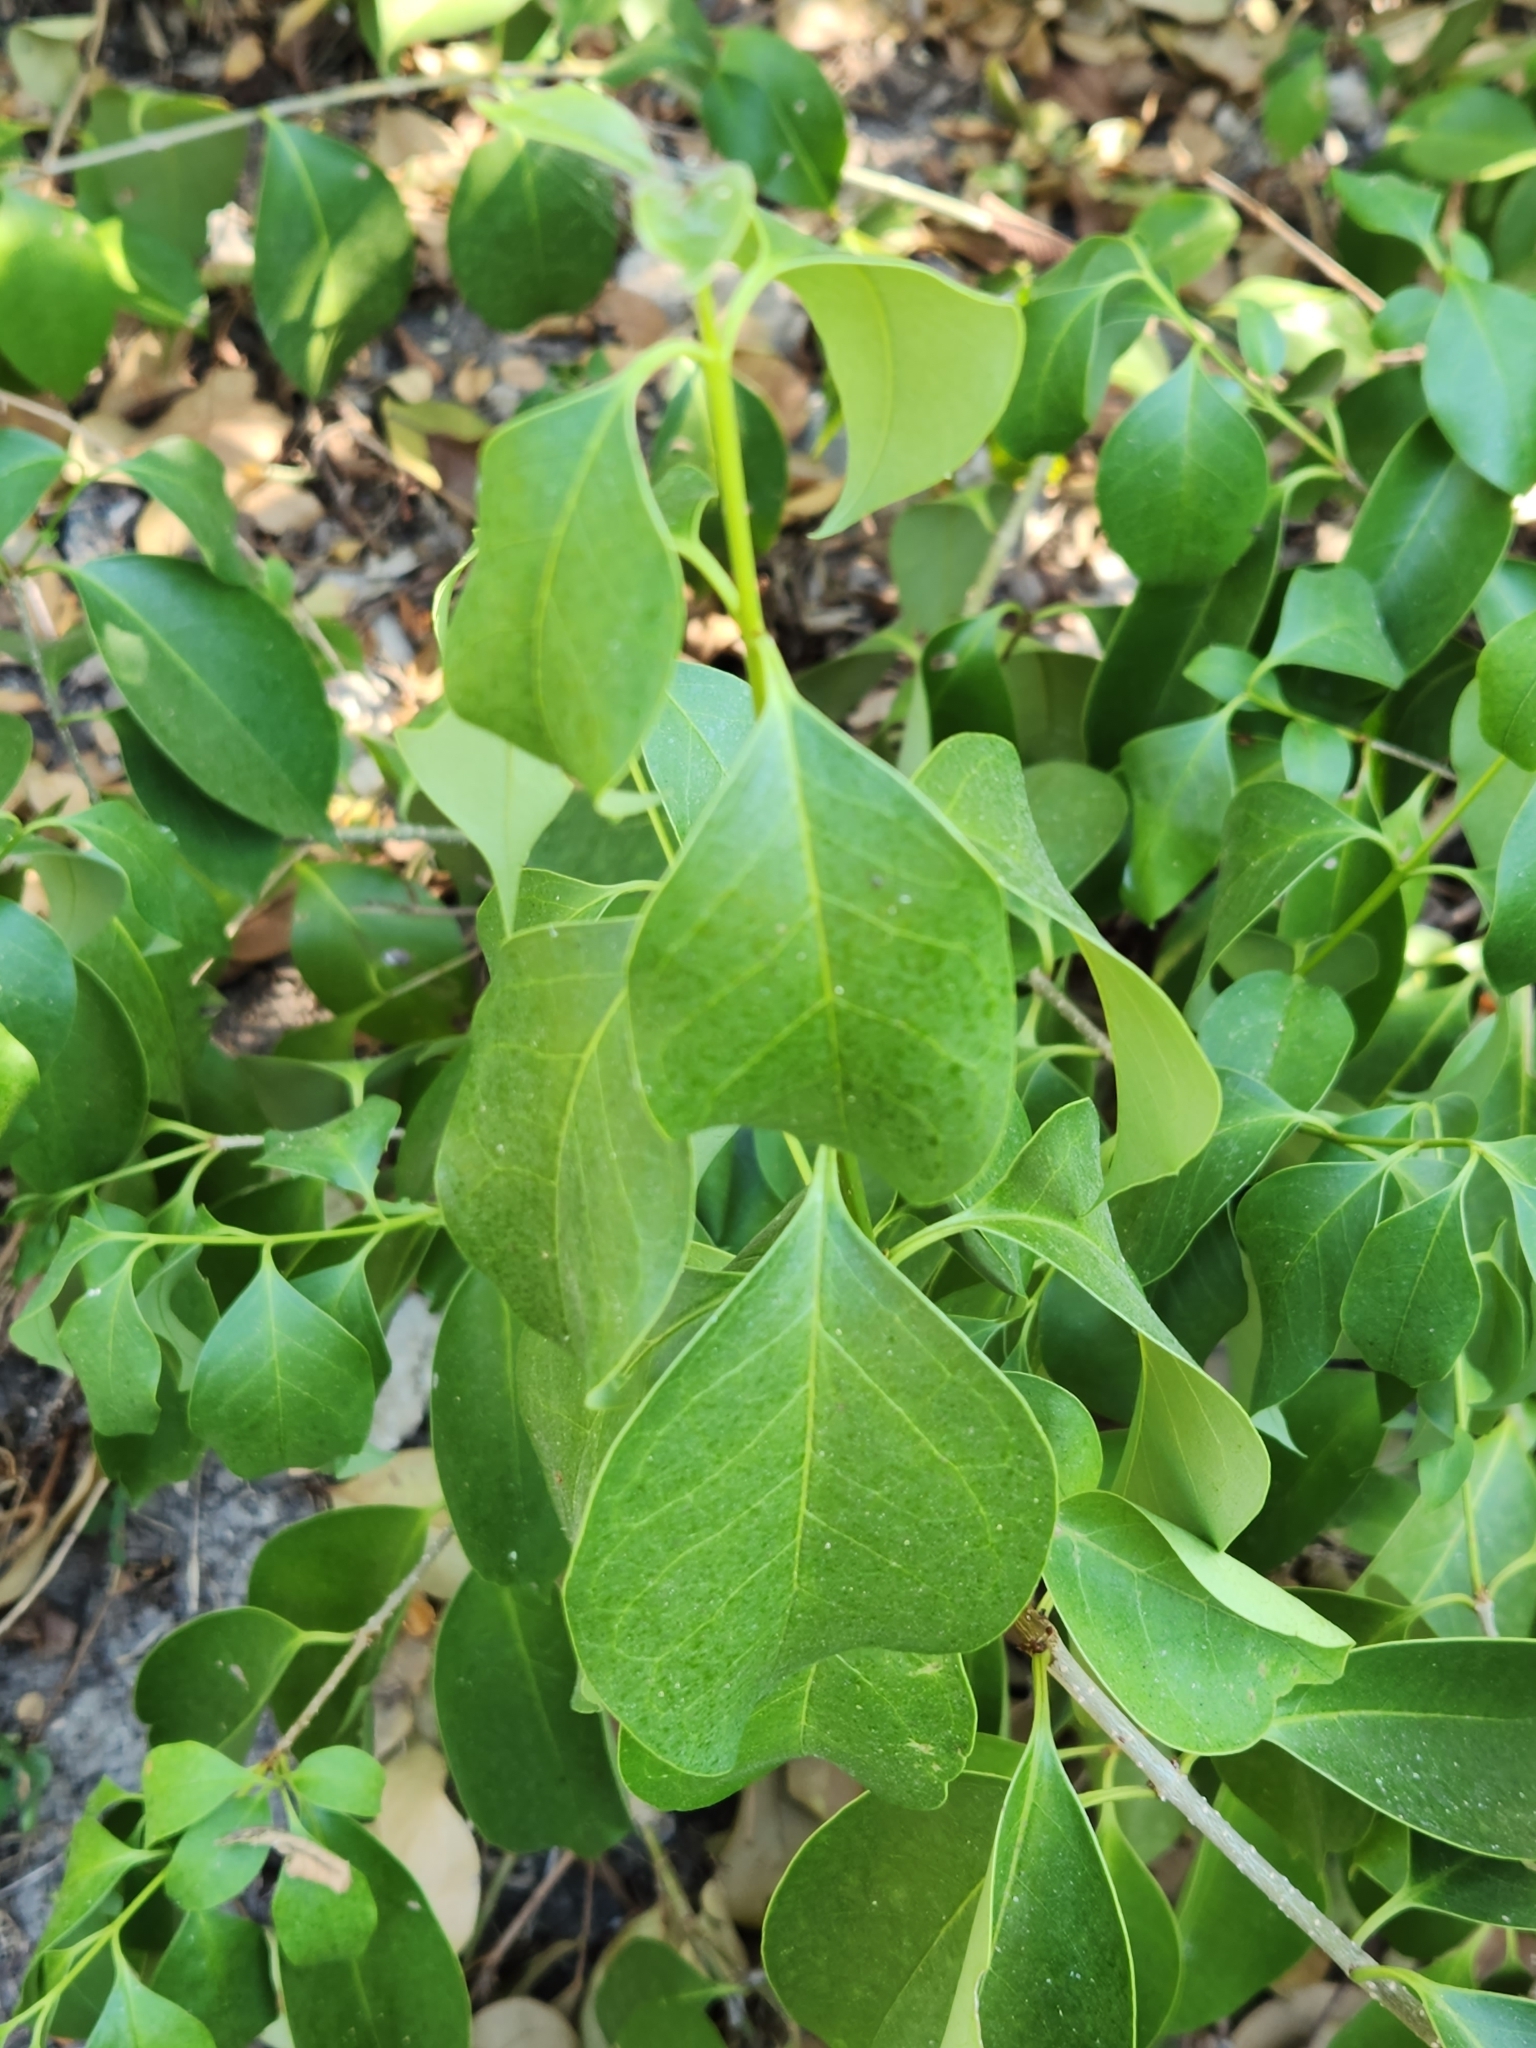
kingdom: Plantae
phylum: Tracheophyta
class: Magnoliopsida
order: Lamiales
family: Oleaceae
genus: Ligustrum
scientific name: Ligustrum lucidum
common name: Glossy privet
